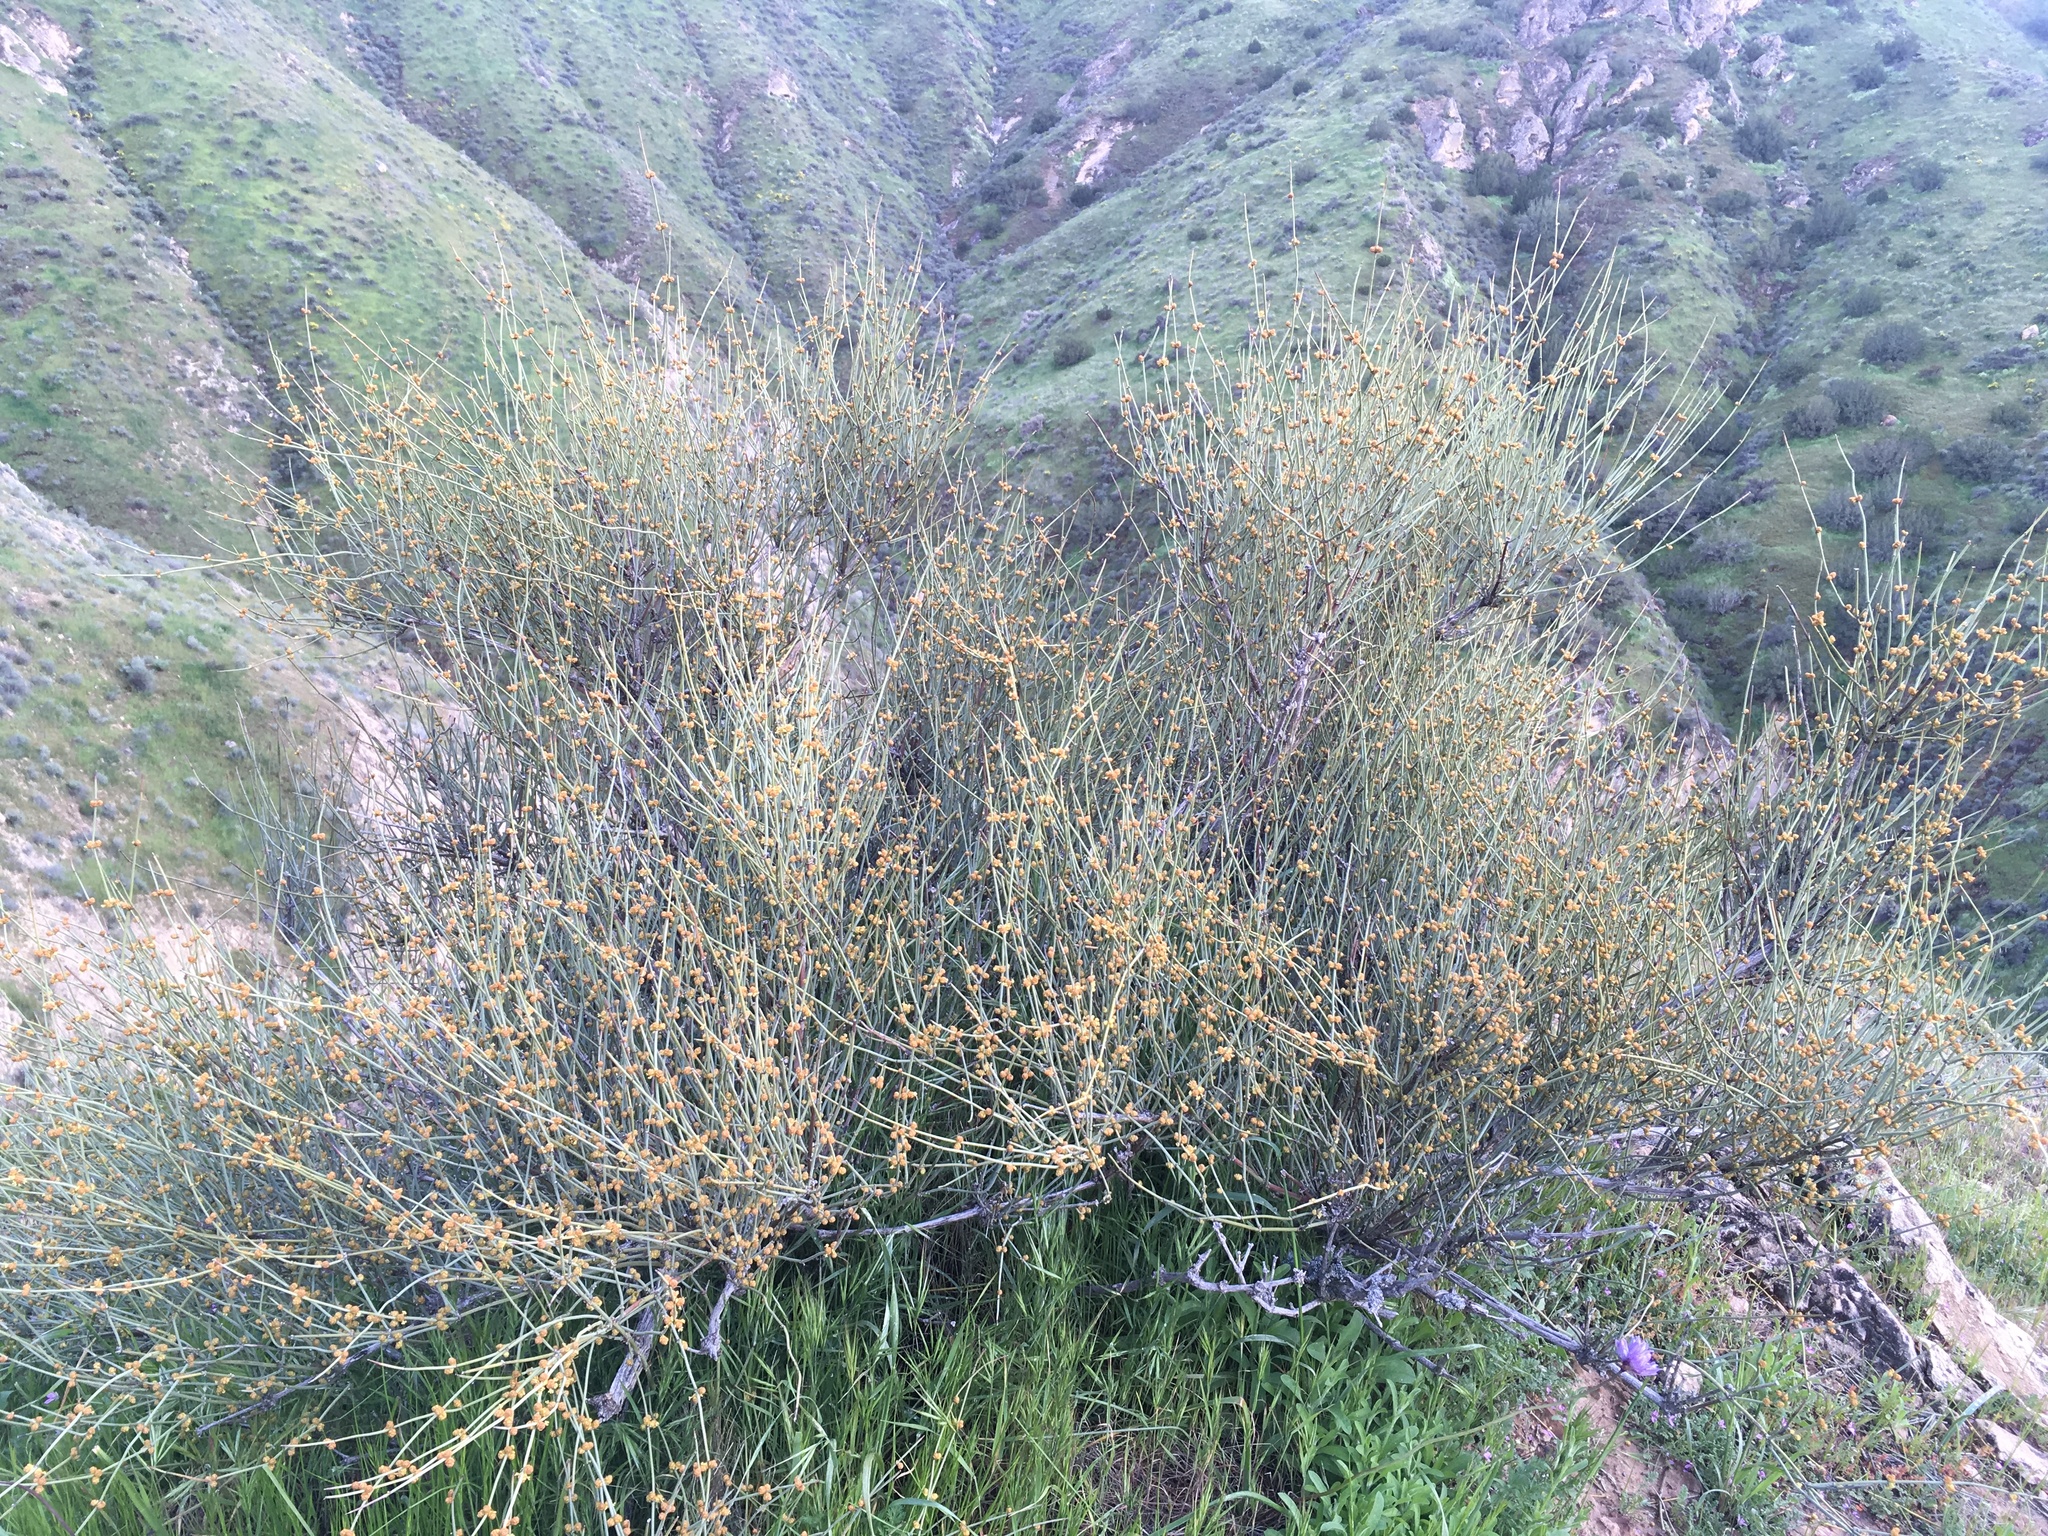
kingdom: Plantae
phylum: Tracheophyta
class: Gnetopsida
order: Ephedrales
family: Ephedraceae
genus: Ephedra
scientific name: Ephedra californica
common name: California ephedra
